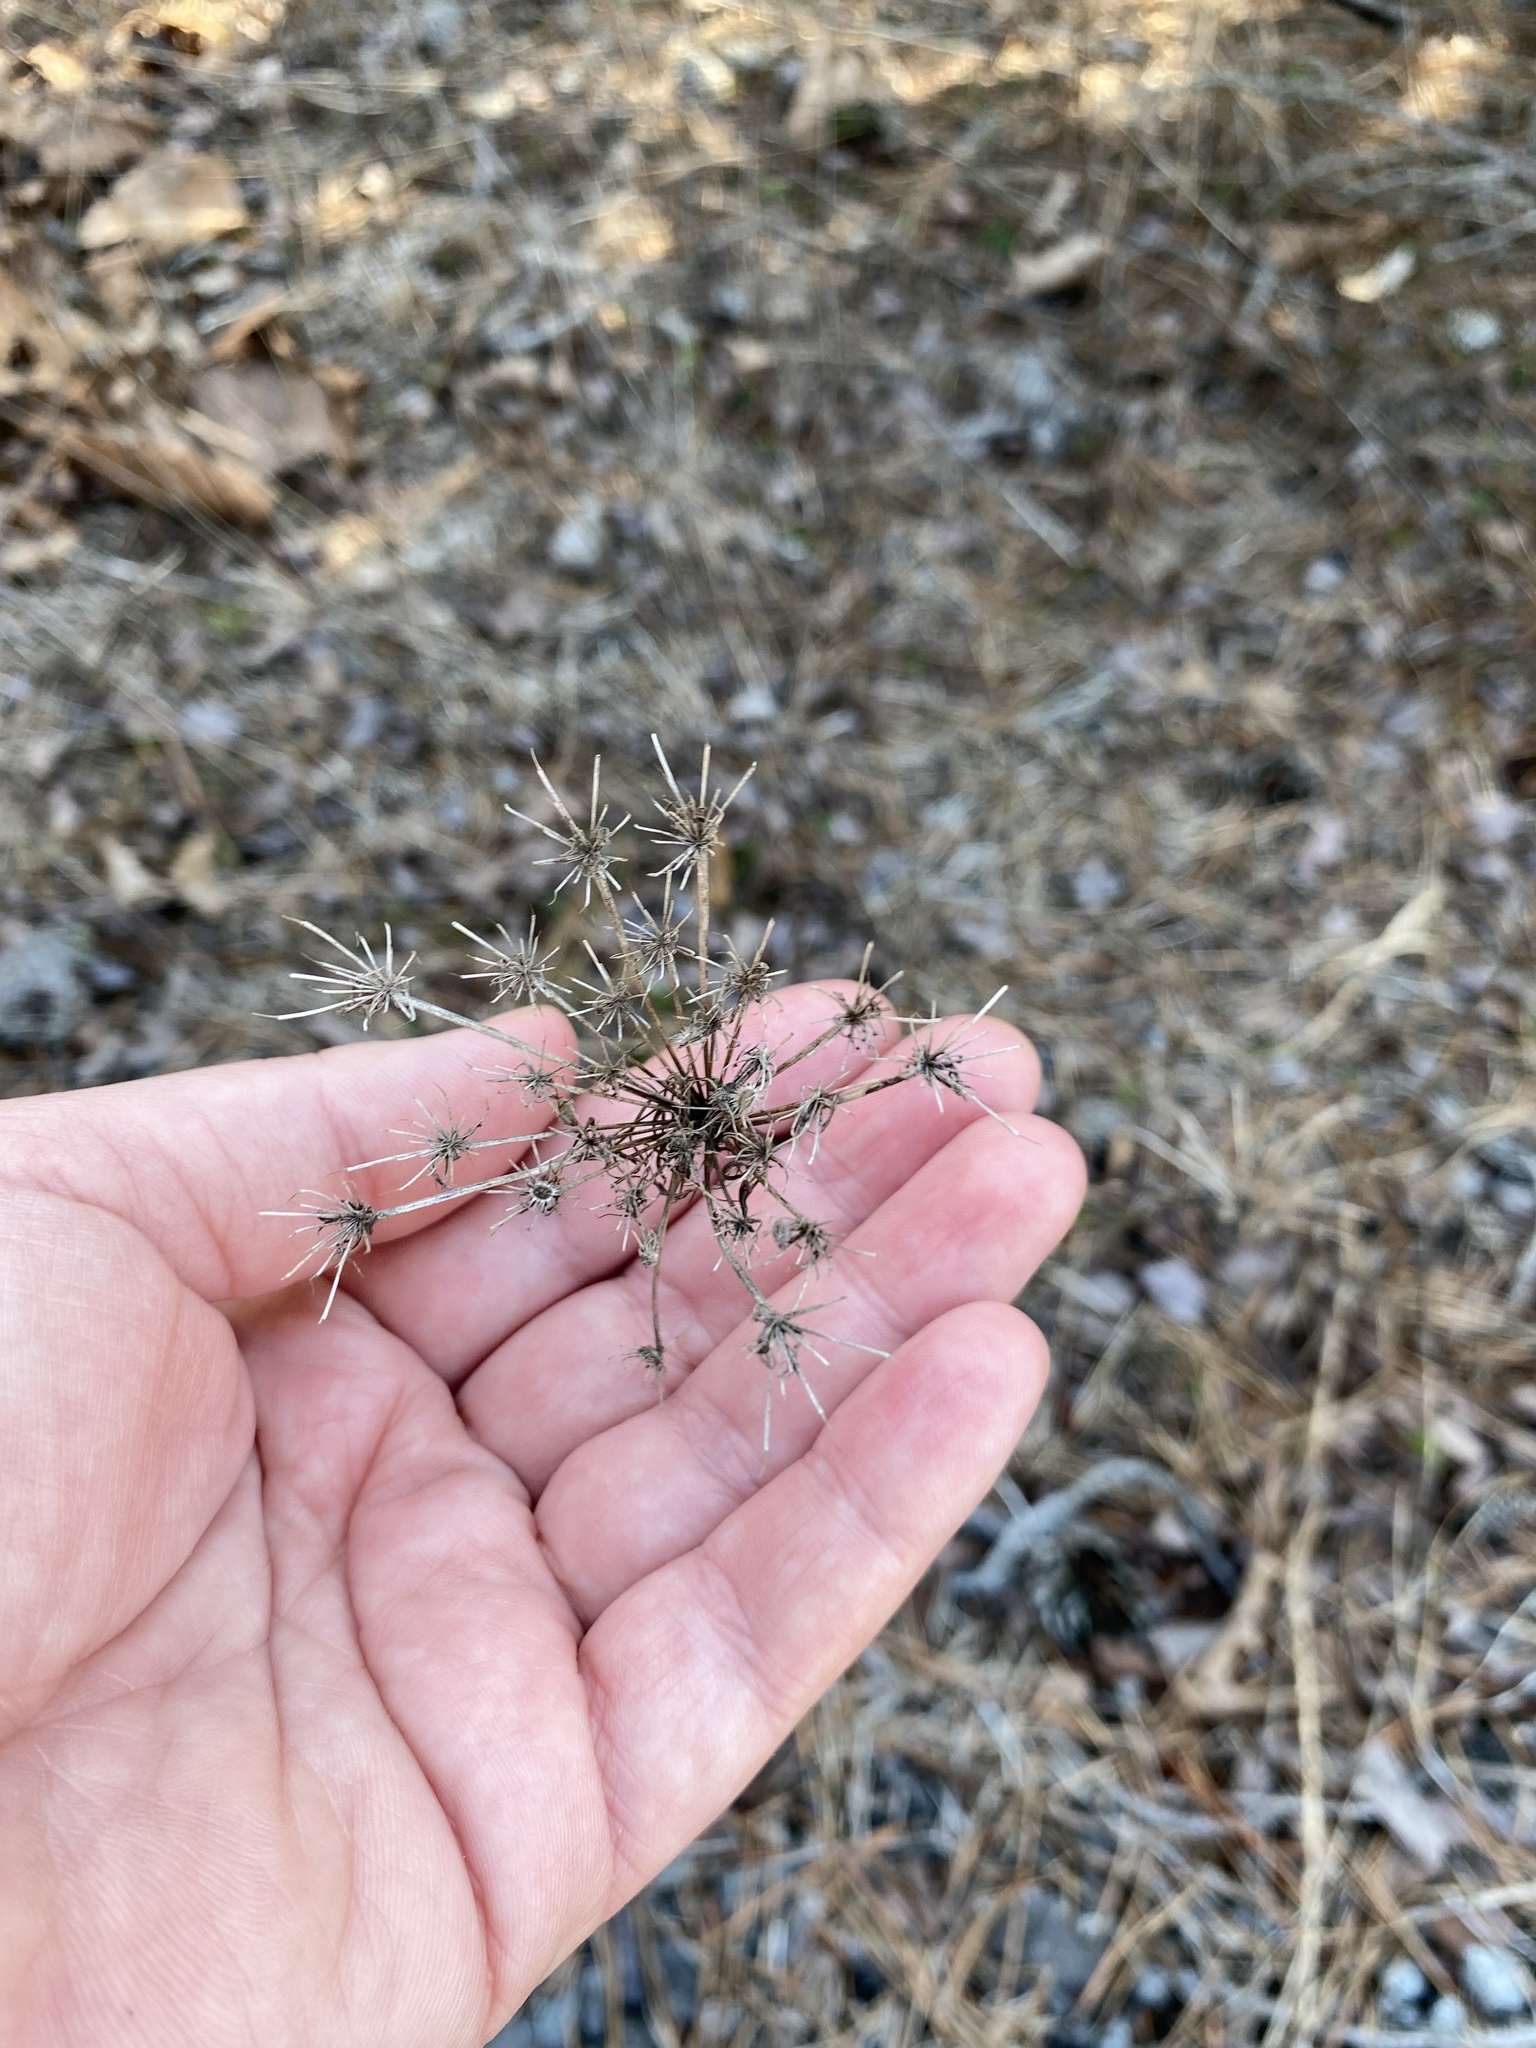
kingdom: Plantae
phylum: Tracheophyta
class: Magnoliopsida
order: Apiales
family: Apiaceae
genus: Daucus
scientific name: Daucus carota
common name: Wild carrot
